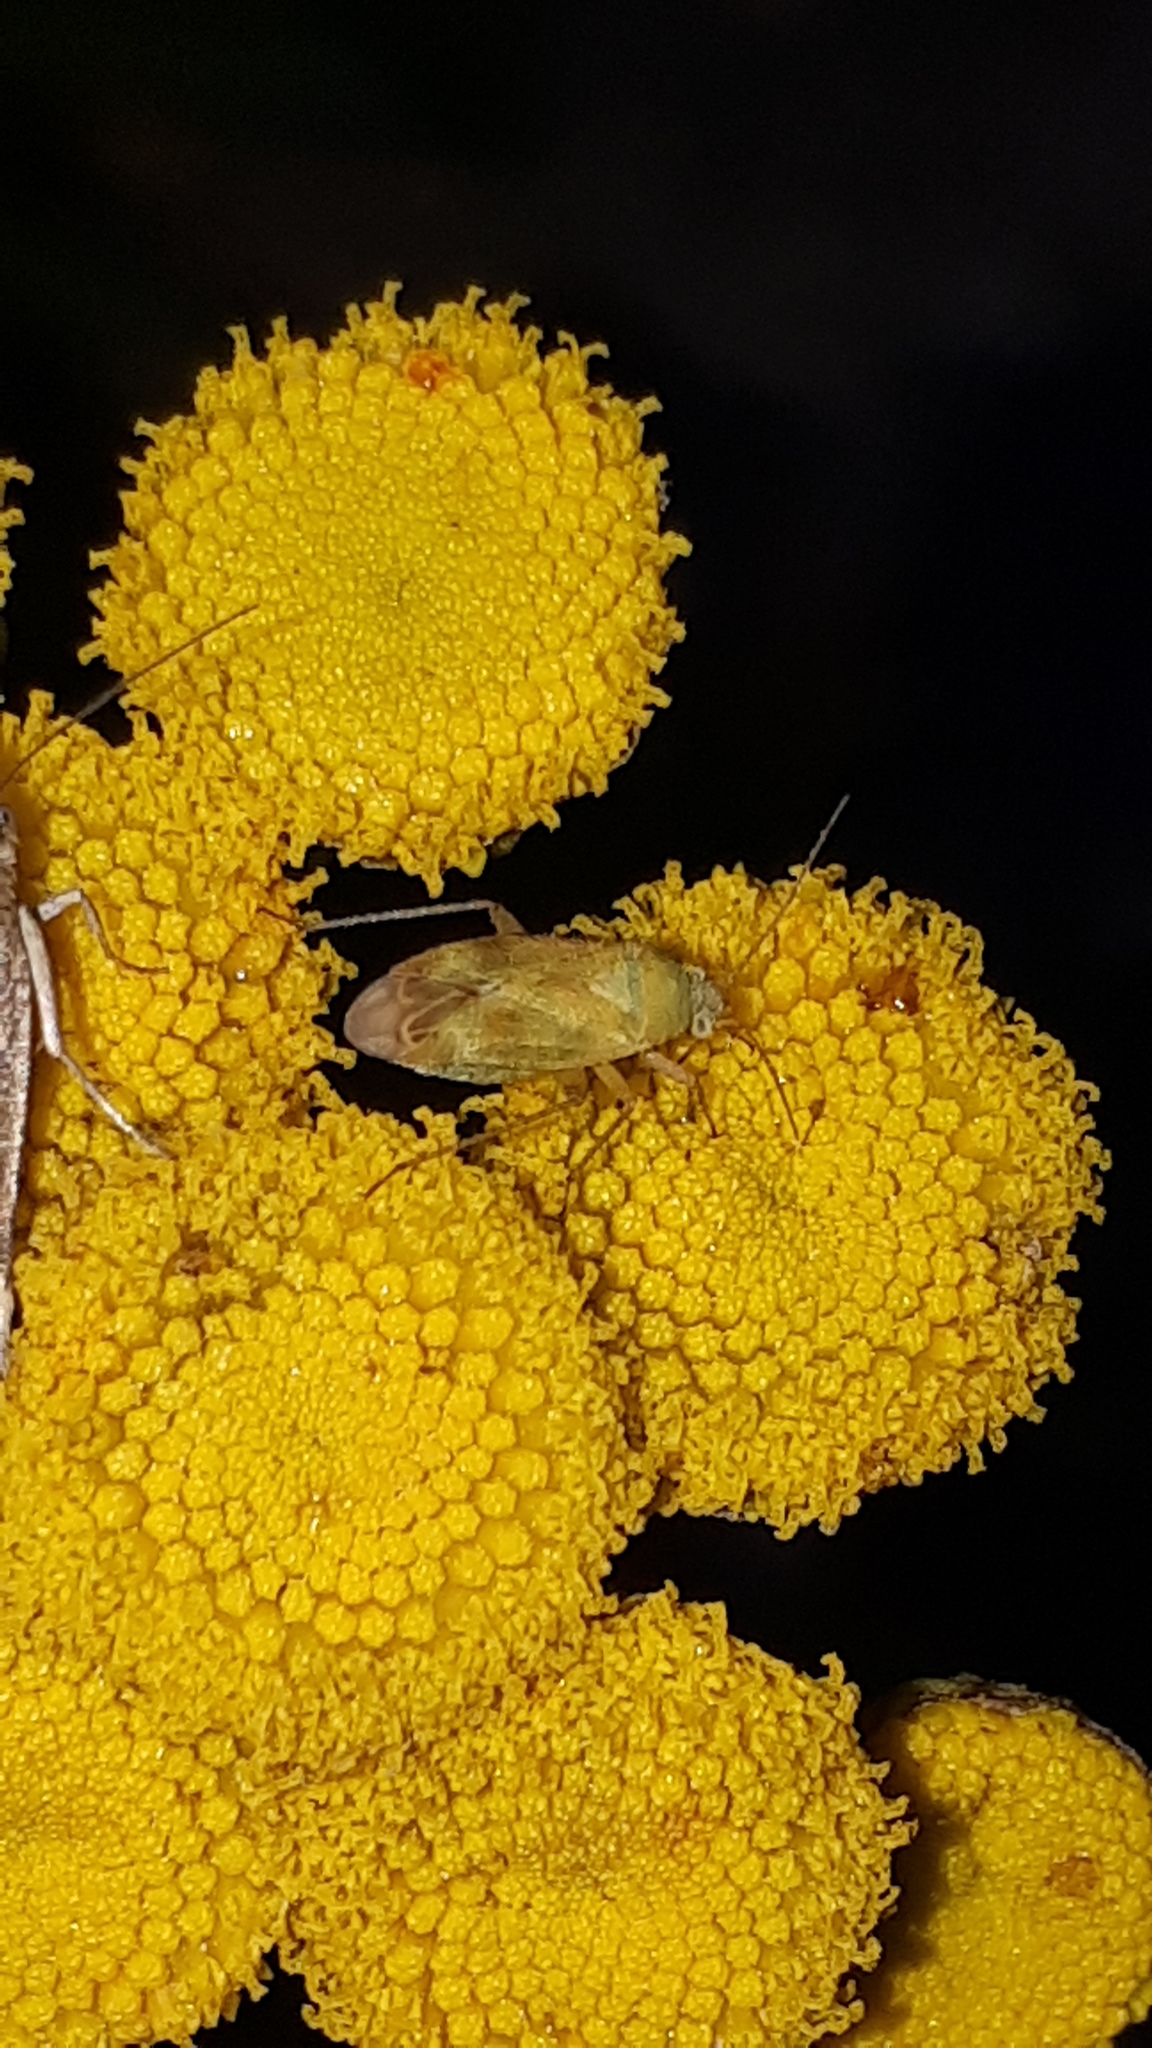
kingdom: Animalia
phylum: Arthropoda
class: Insecta
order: Hemiptera
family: Miridae
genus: Megalocoleus
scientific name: Megalocoleus tanaceti
